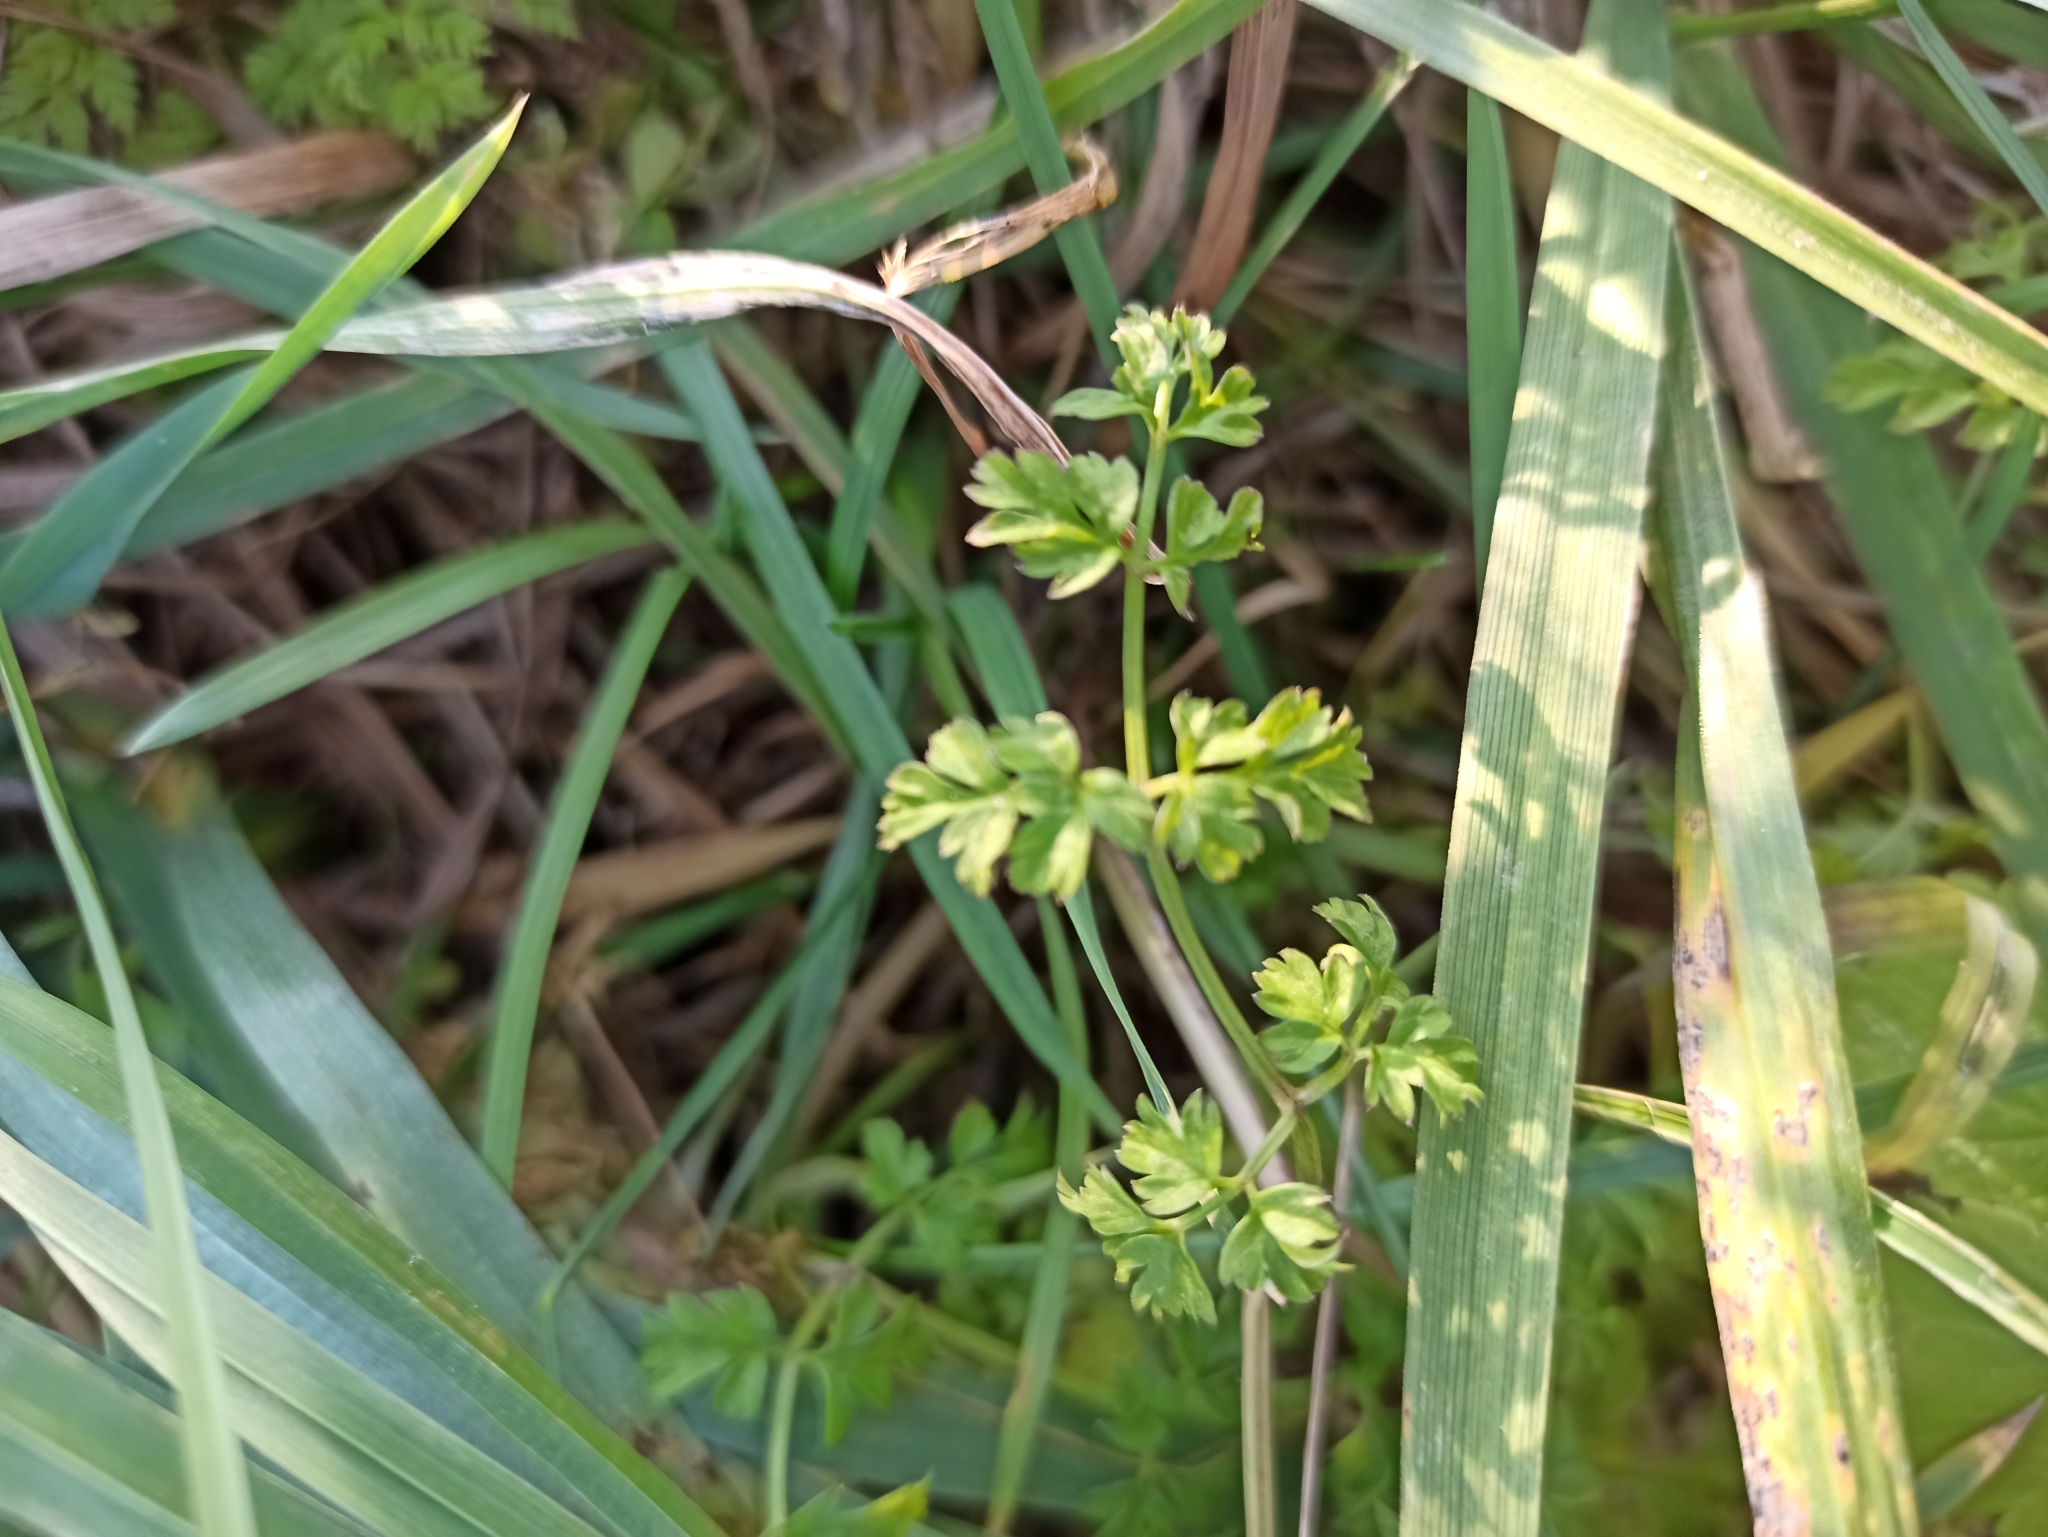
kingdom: Plantae
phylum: Tracheophyta
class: Magnoliopsida
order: Apiales
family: Apiaceae
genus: Anthriscus
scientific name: Anthriscus sylvestris
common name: Cow parsley
